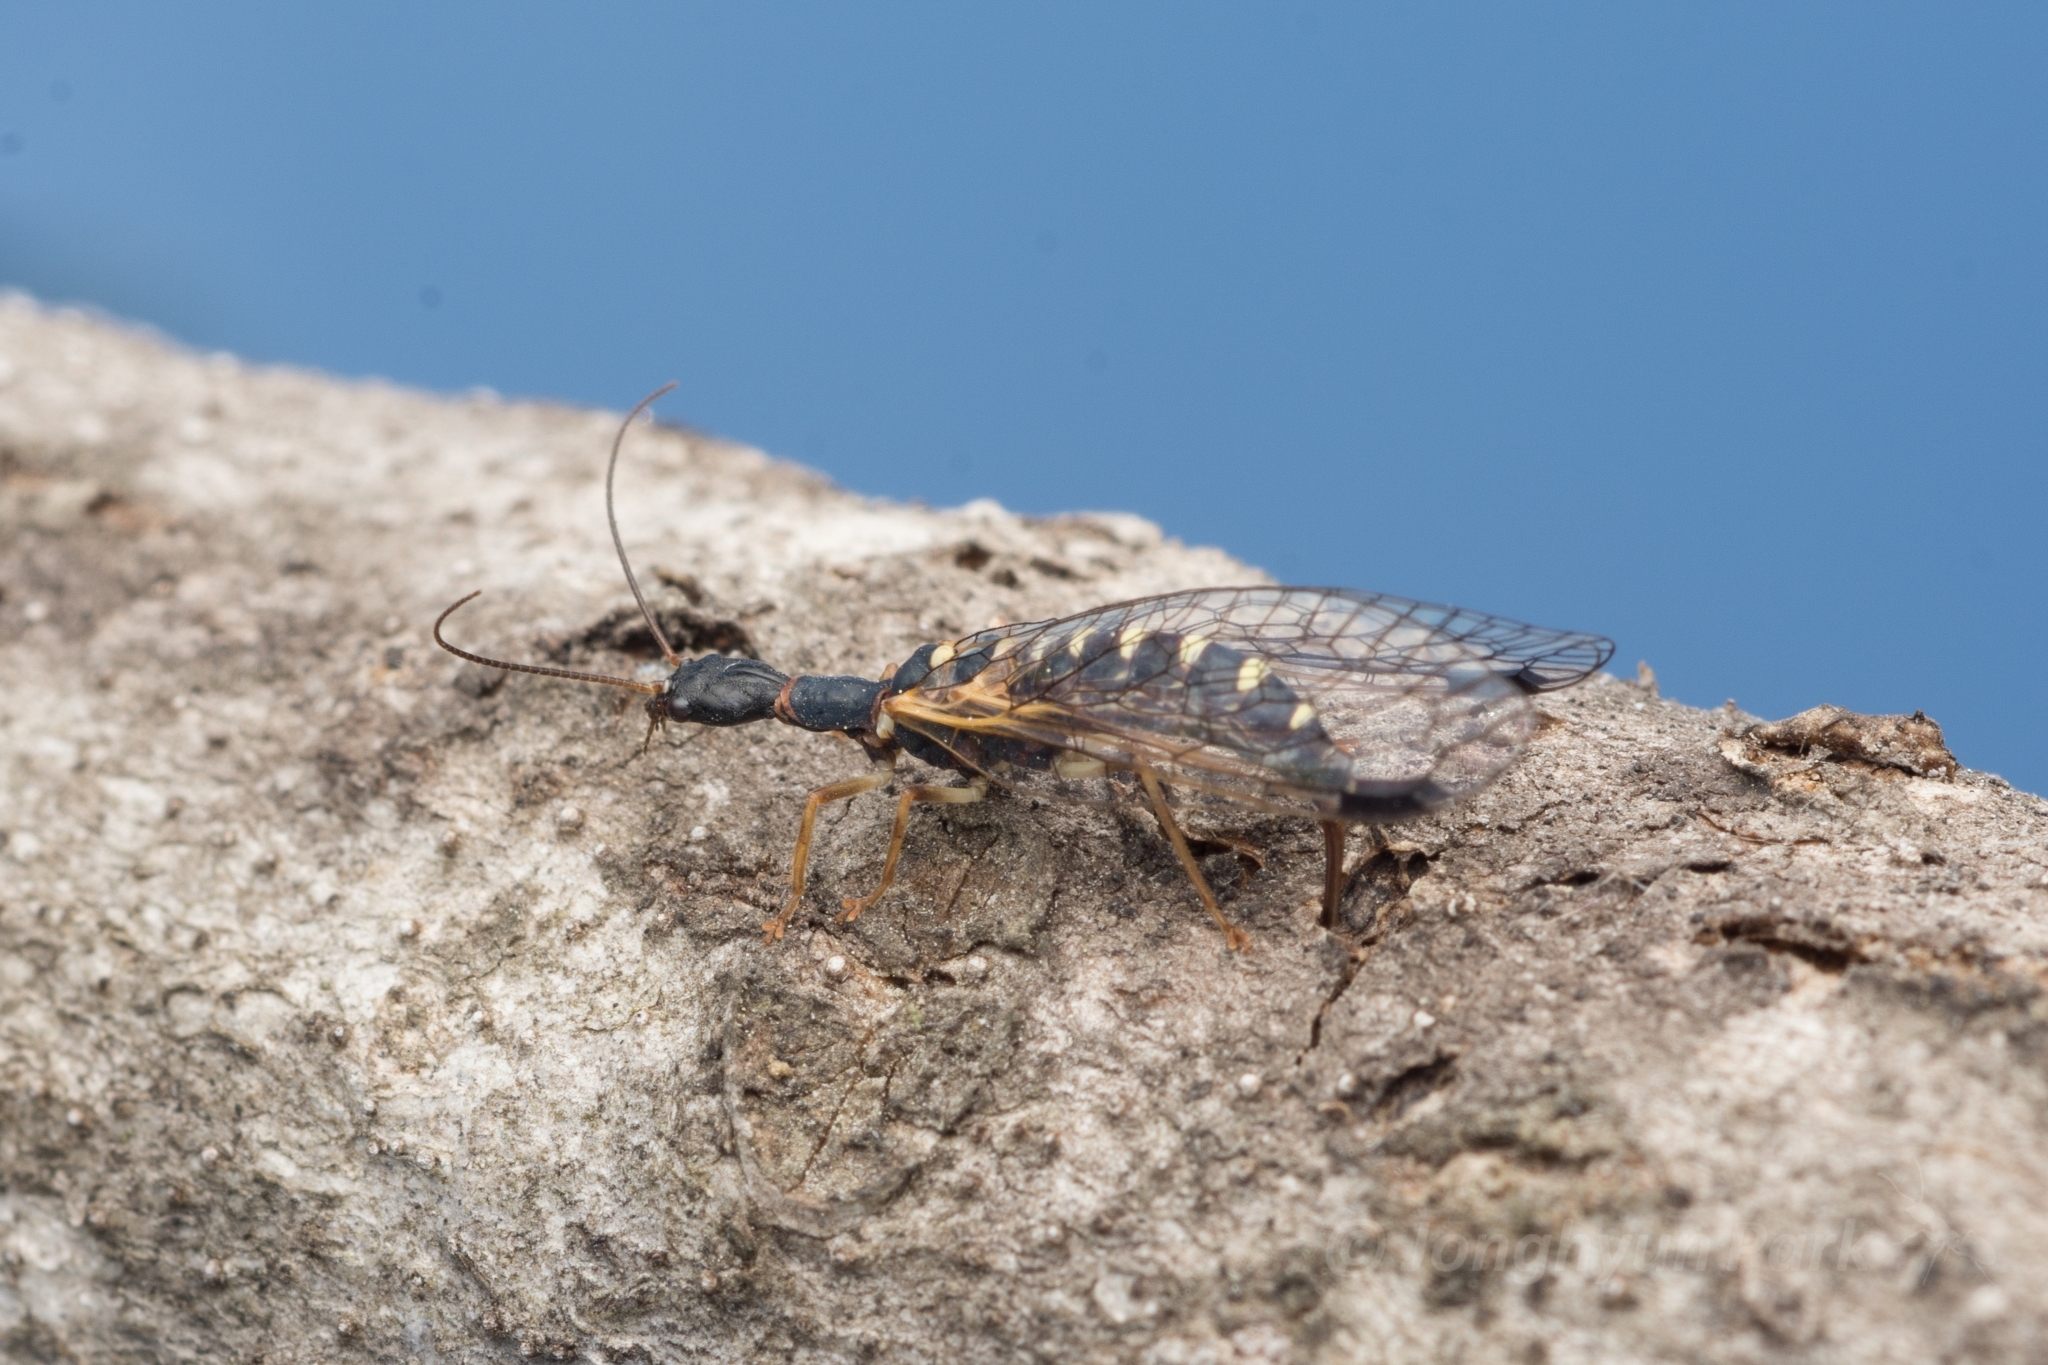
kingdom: Animalia
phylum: Arthropoda
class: Insecta
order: Raphidioptera
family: Inocelliidae
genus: Inocellia
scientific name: Inocellia japonica
